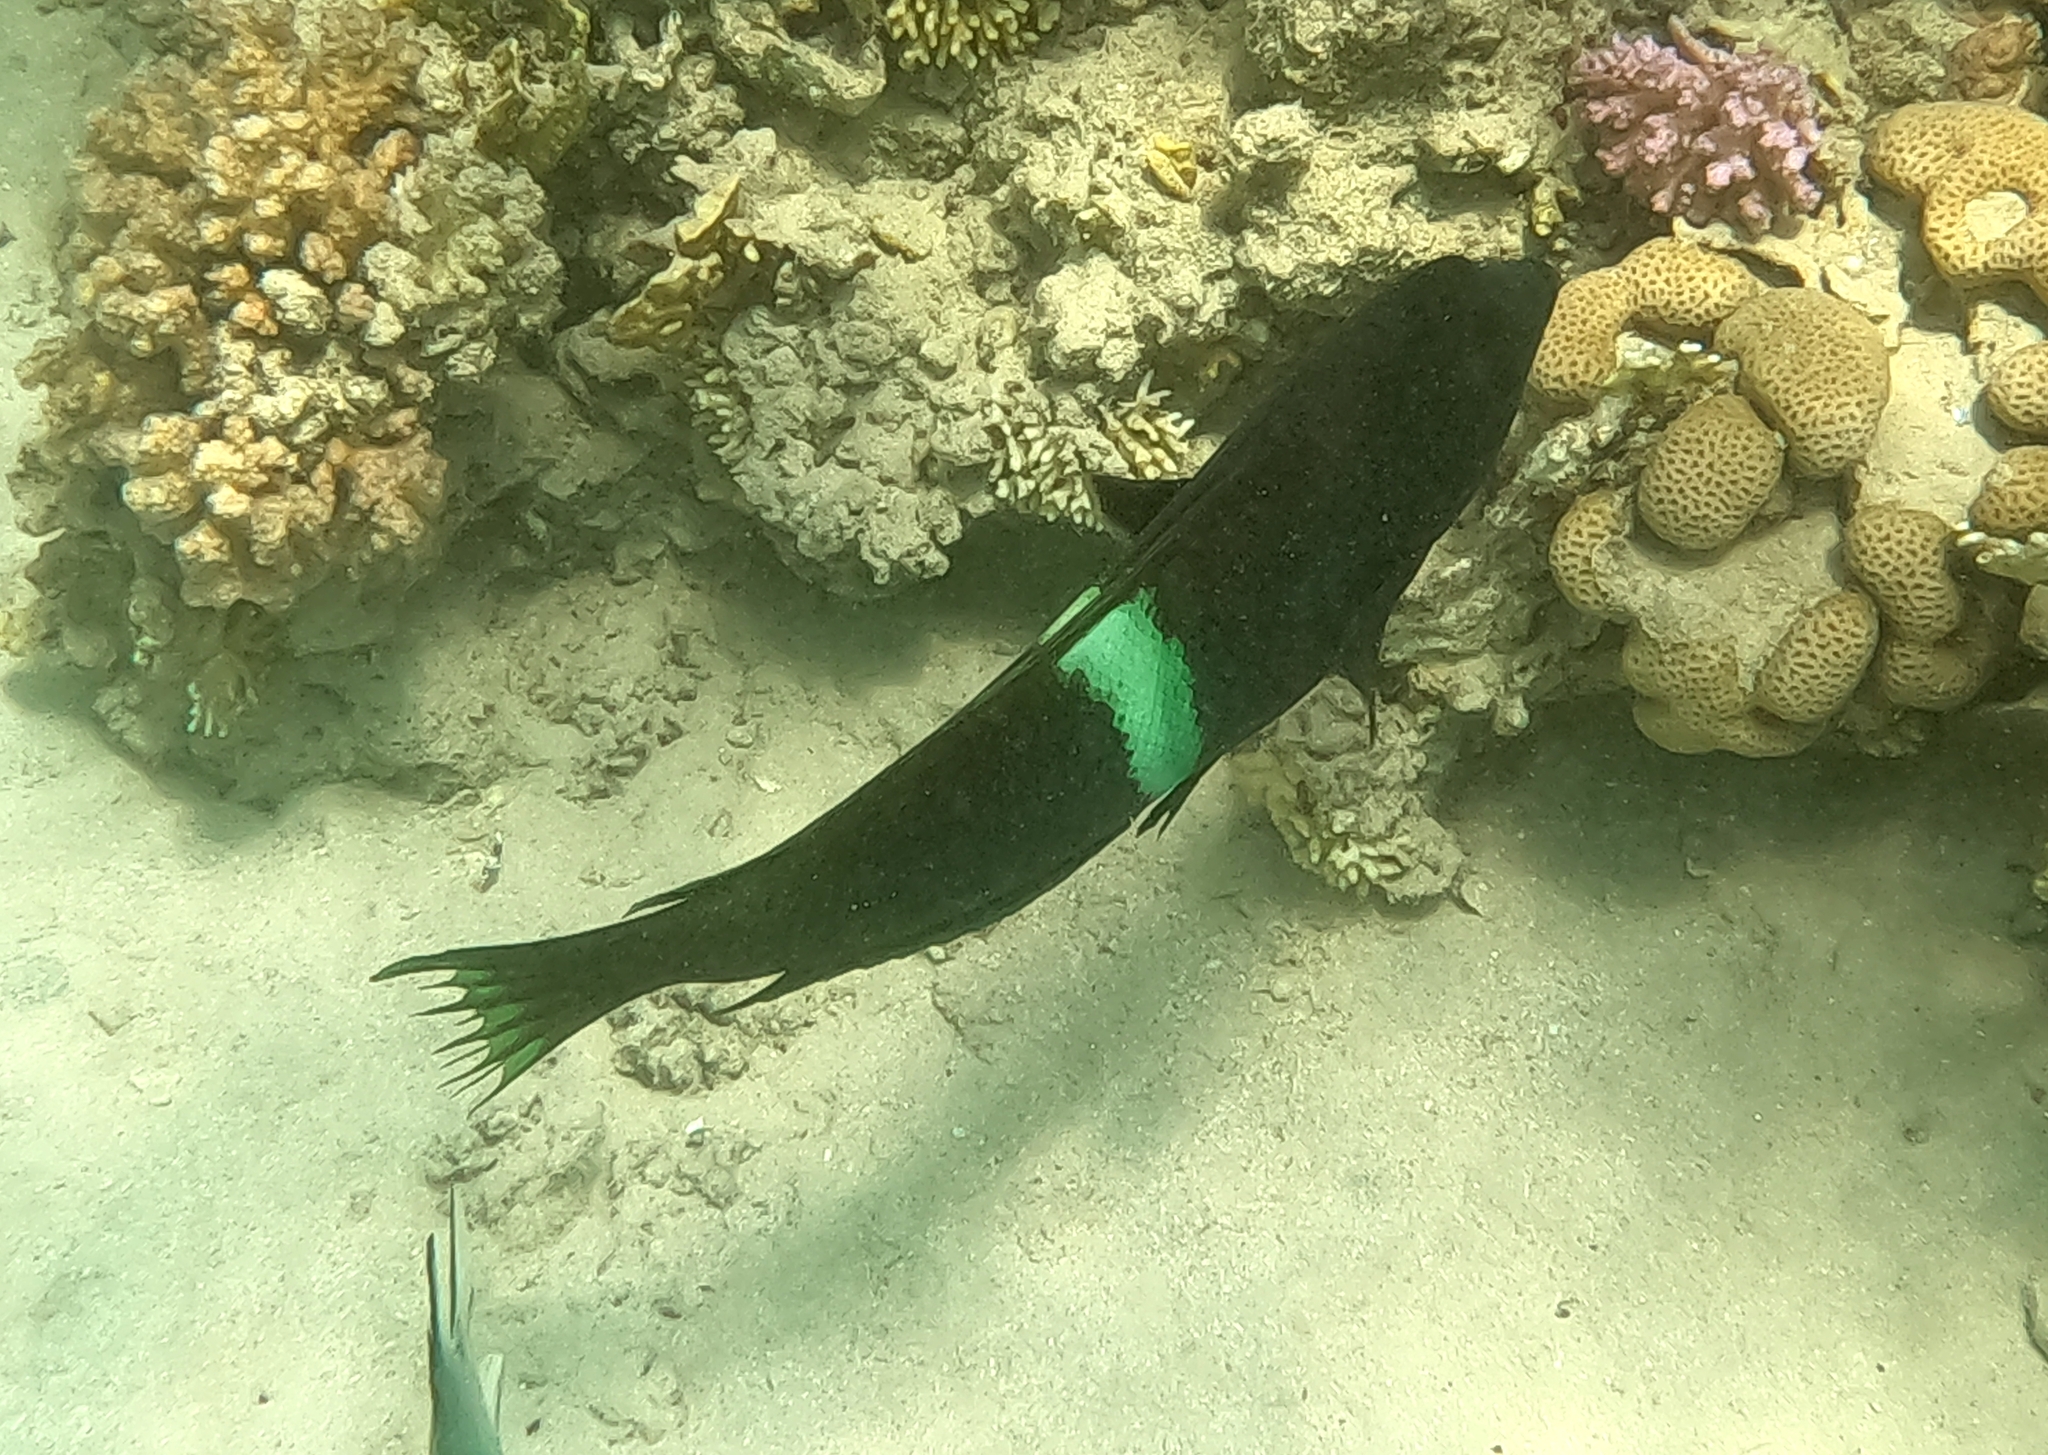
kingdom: Animalia
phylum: Chordata
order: Perciformes
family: Labridae
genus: Coris
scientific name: Coris aygula
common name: Clown coris
